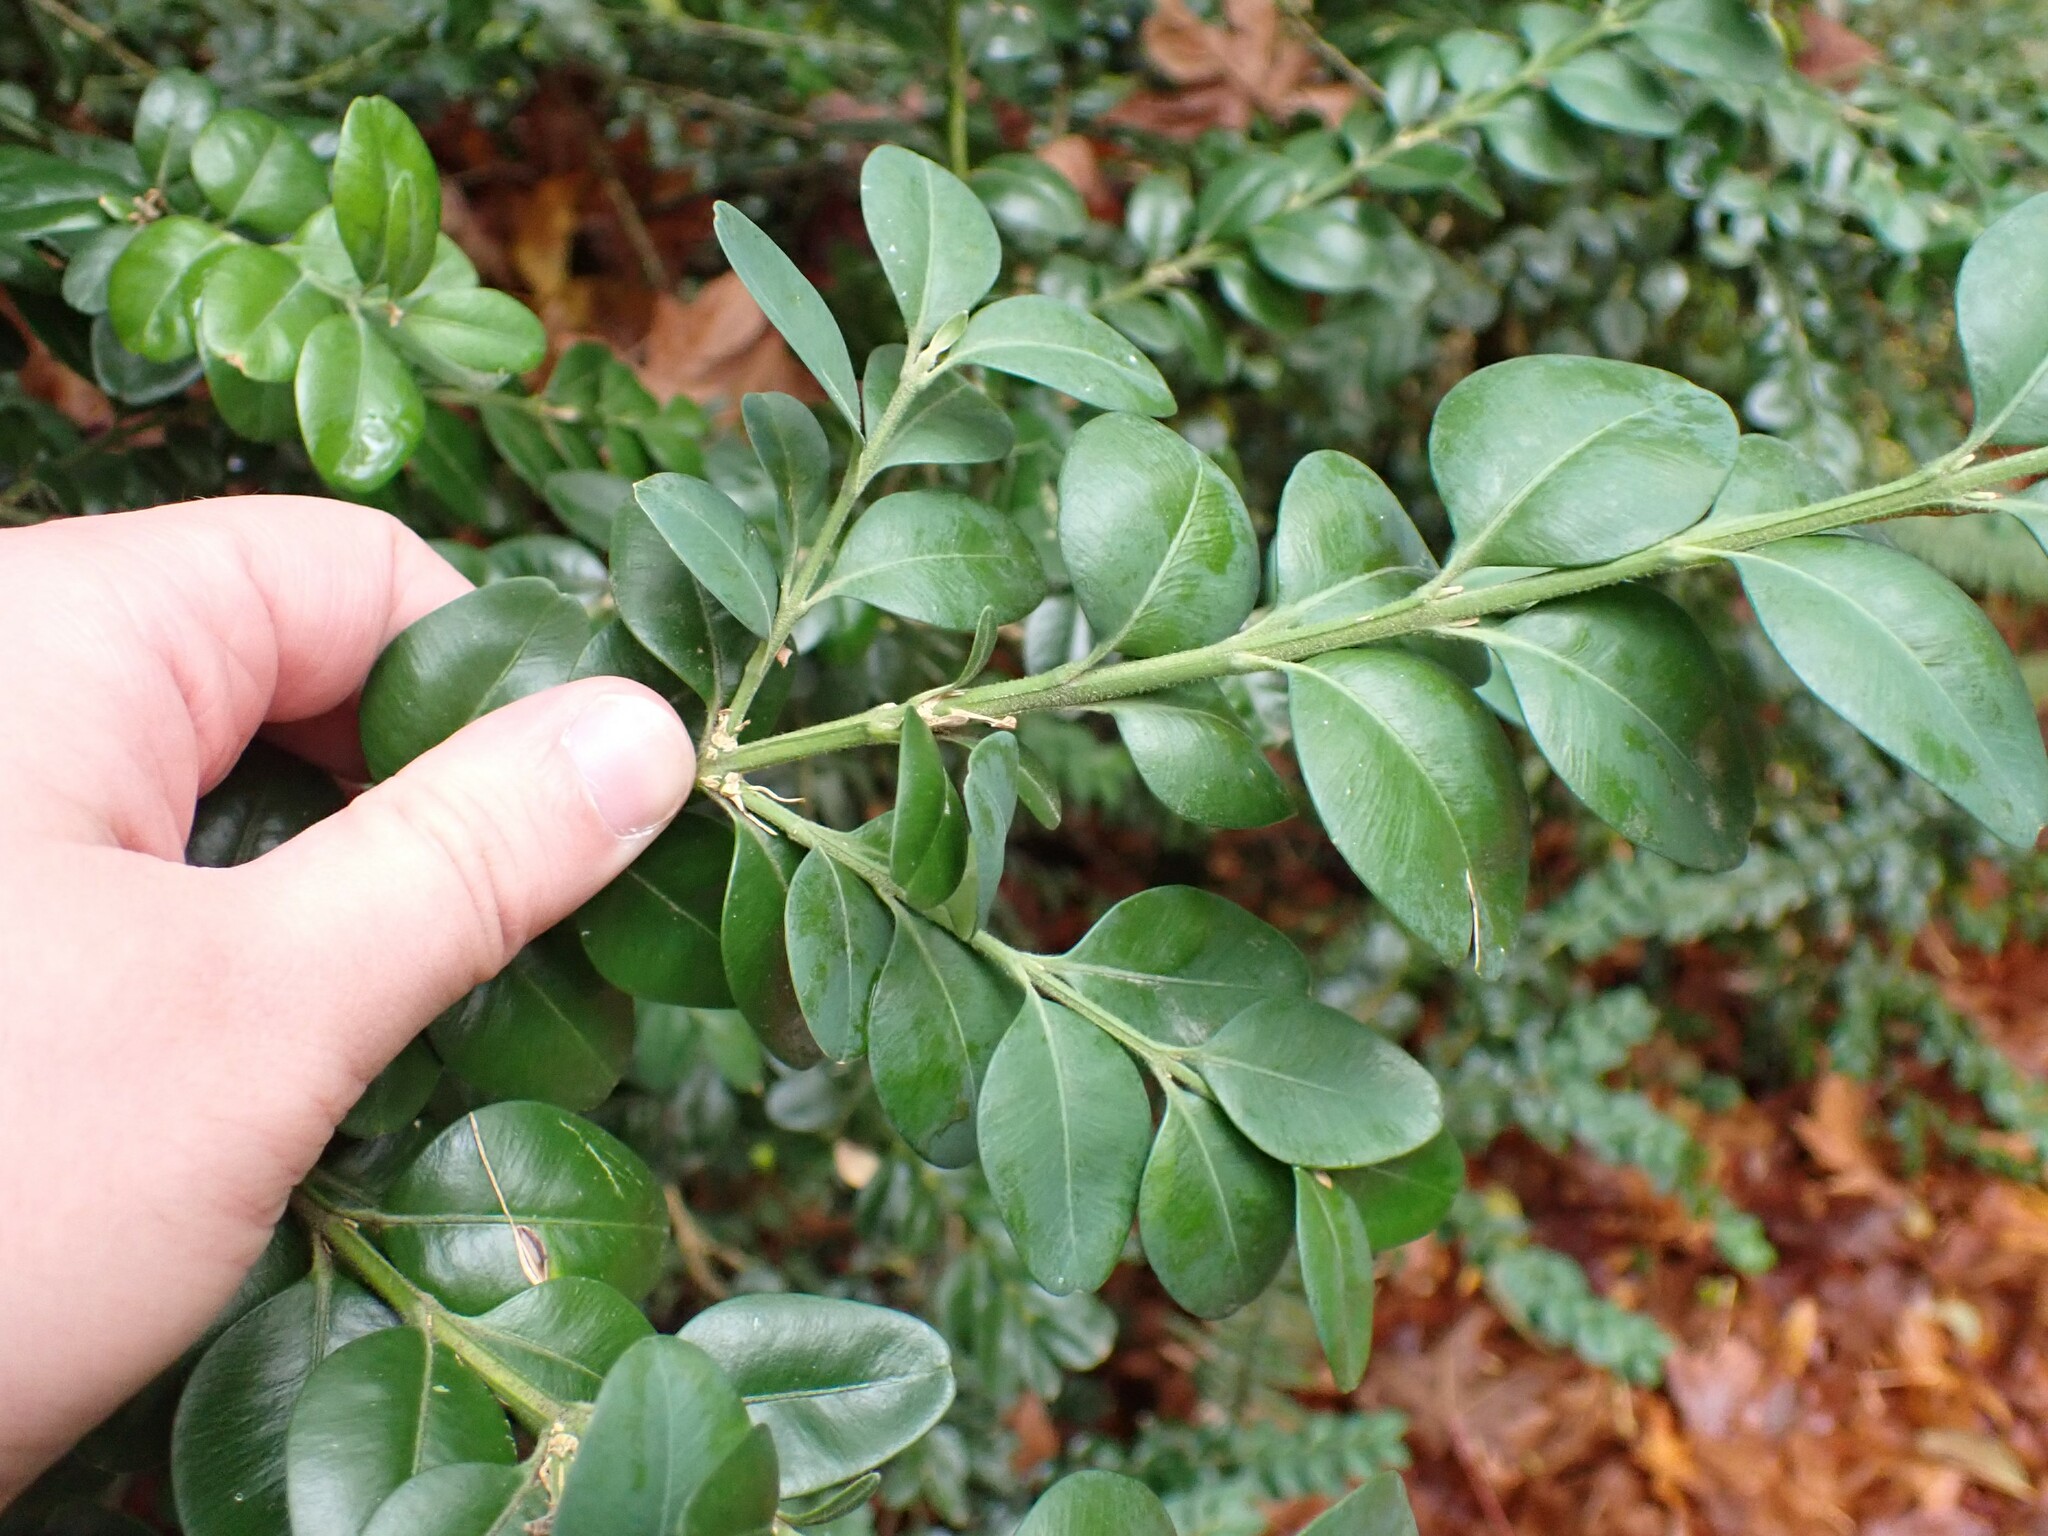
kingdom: Plantae
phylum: Tracheophyta
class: Magnoliopsida
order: Buxales
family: Buxaceae
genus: Buxus
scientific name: Buxus sempervirens
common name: Box
